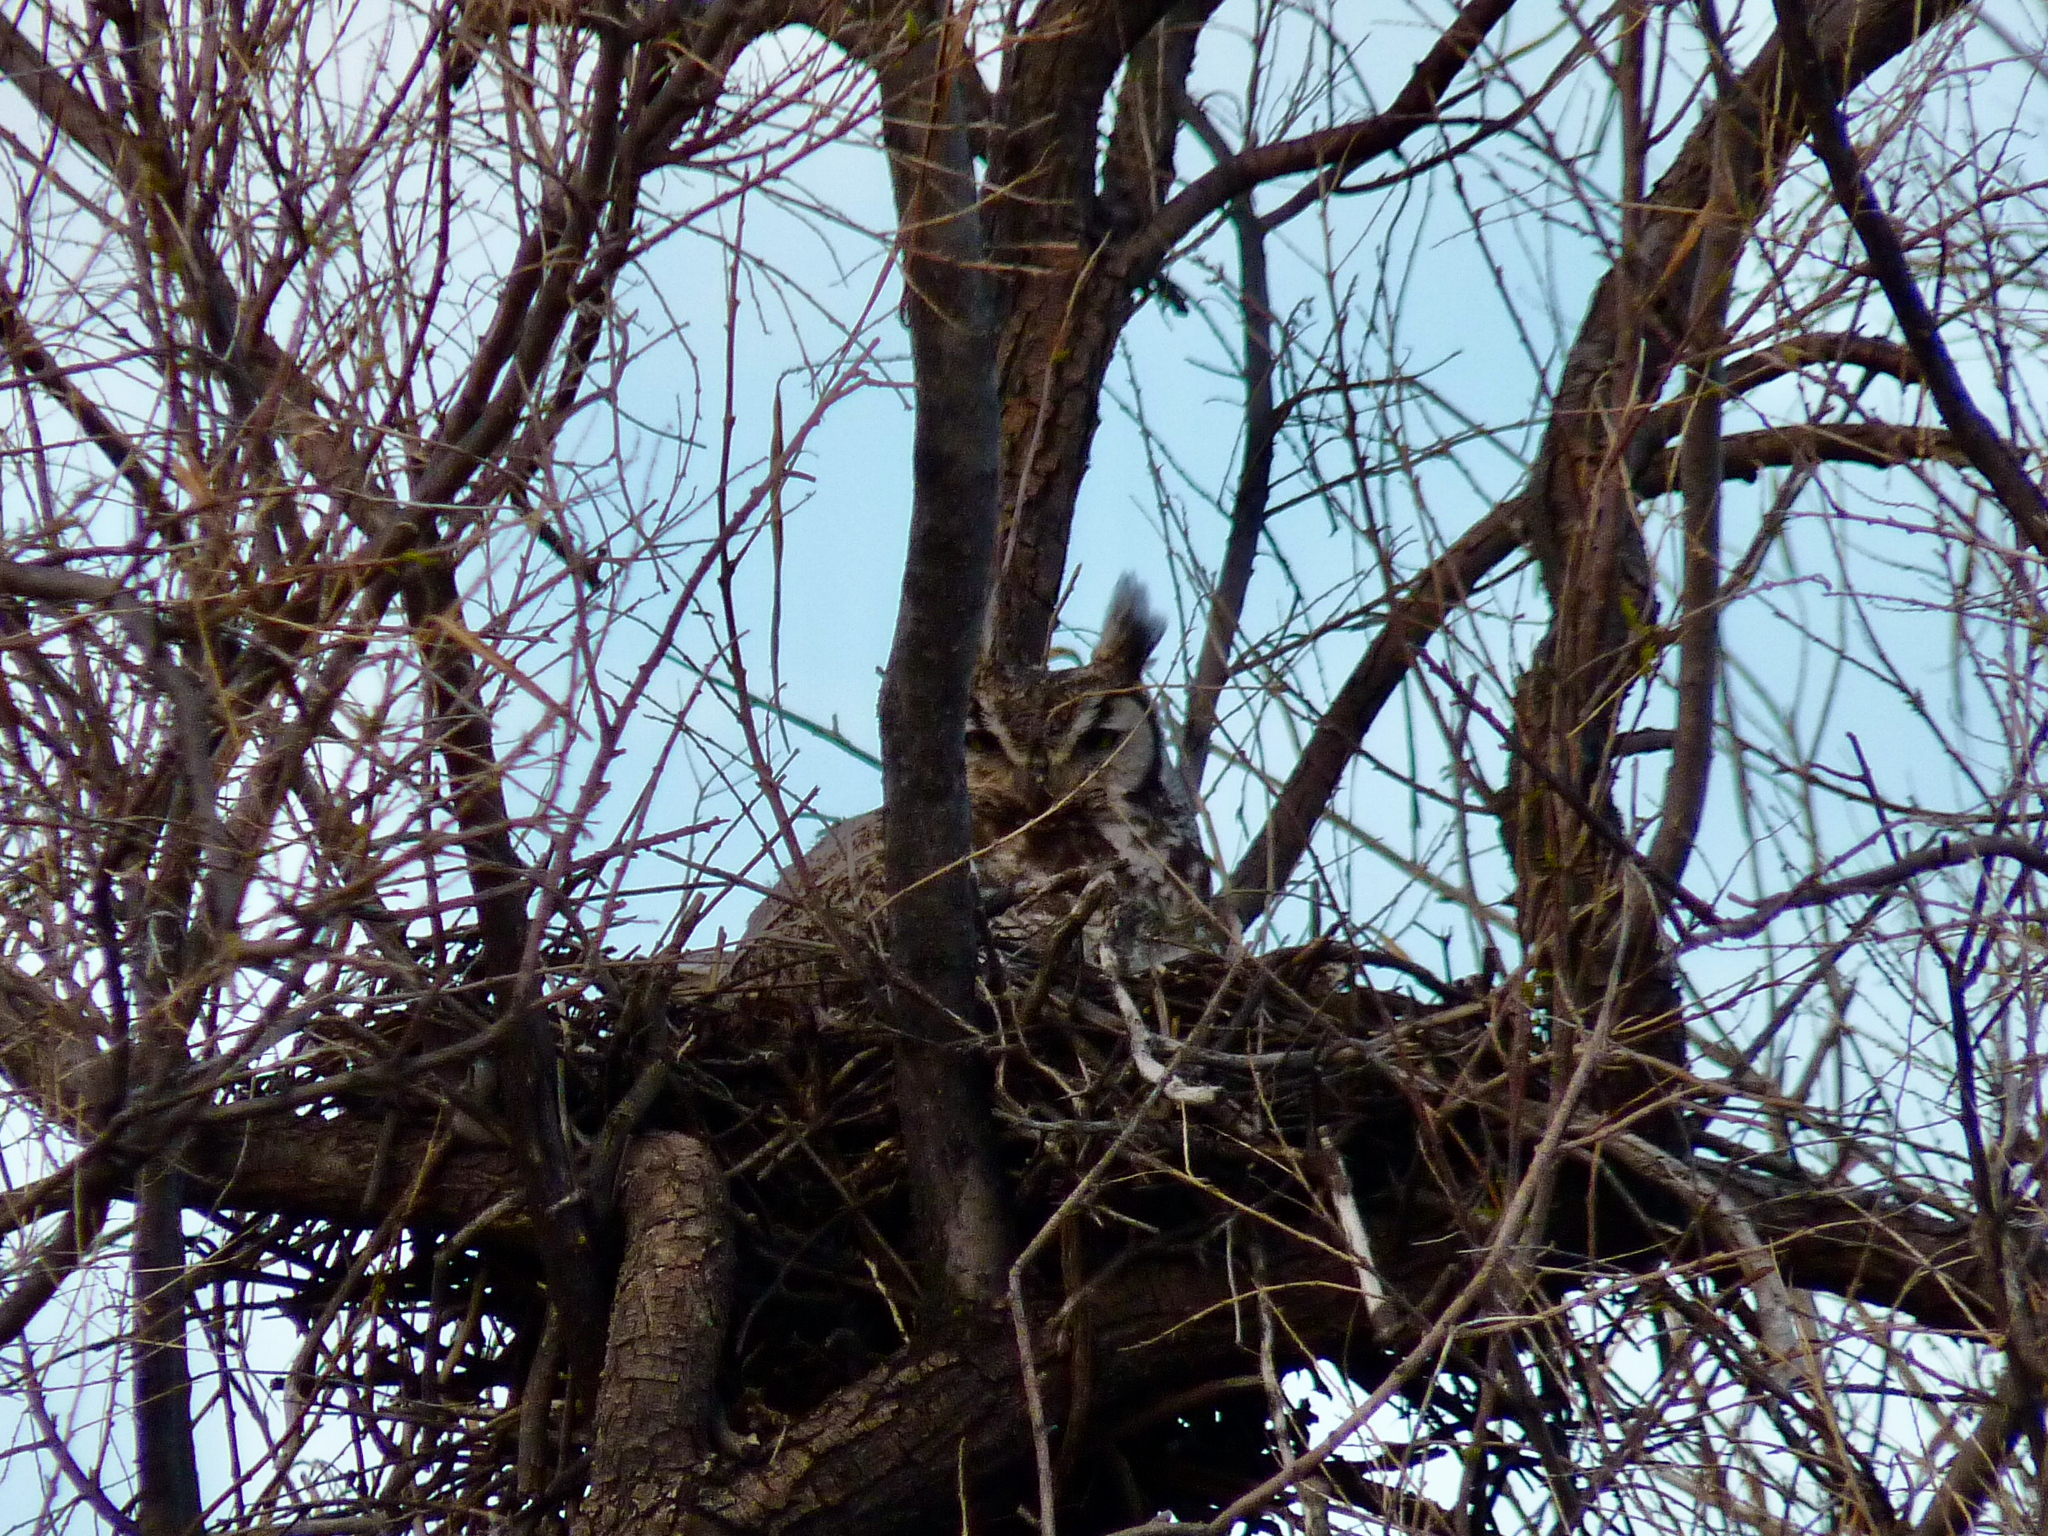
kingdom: Animalia
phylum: Chordata
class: Aves
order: Strigiformes
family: Strigidae
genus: Bubo
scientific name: Bubo virginianus
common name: Great horned owl
